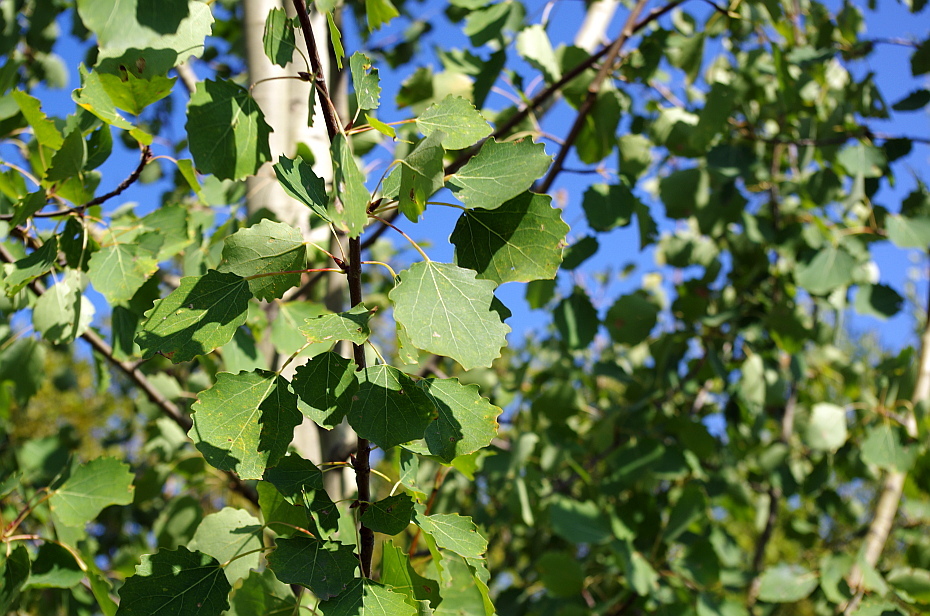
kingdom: Plantae
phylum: Tracheophyta
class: Magnoliopsida
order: Malpighiales
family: Salicaceae
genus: Populus
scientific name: Populus tremula
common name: European aspen
